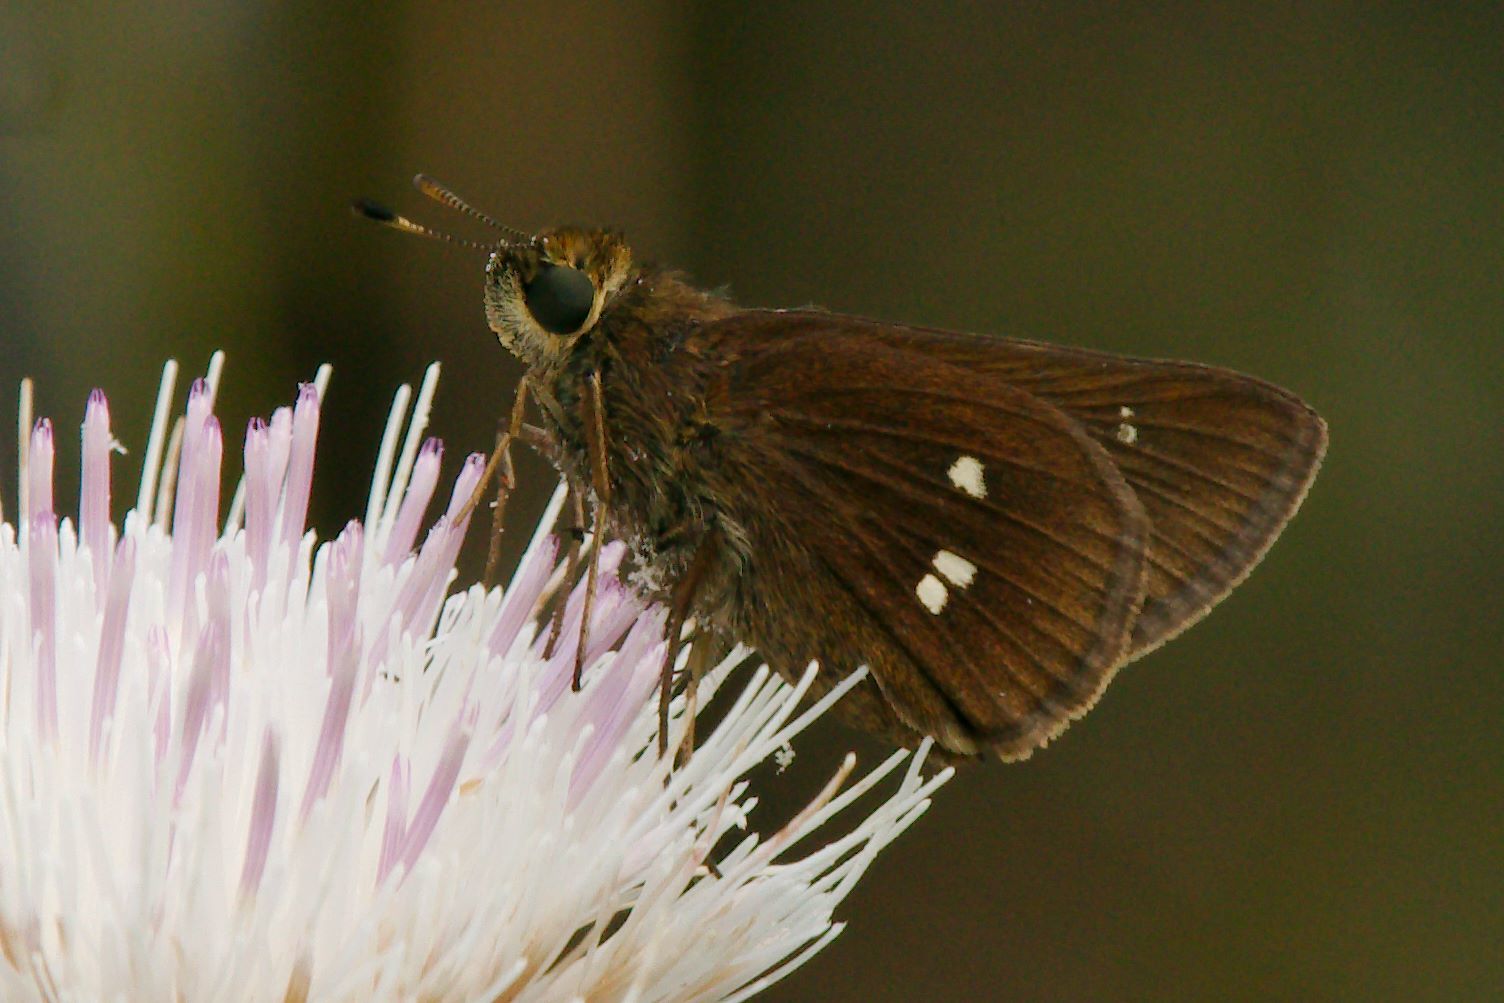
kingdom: Animalia
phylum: Arthropoda
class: Insecta
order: Lepidoptera
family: Hesperiidae
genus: Oligoria
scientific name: Oligoria maculata
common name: Twin-spot skipper
